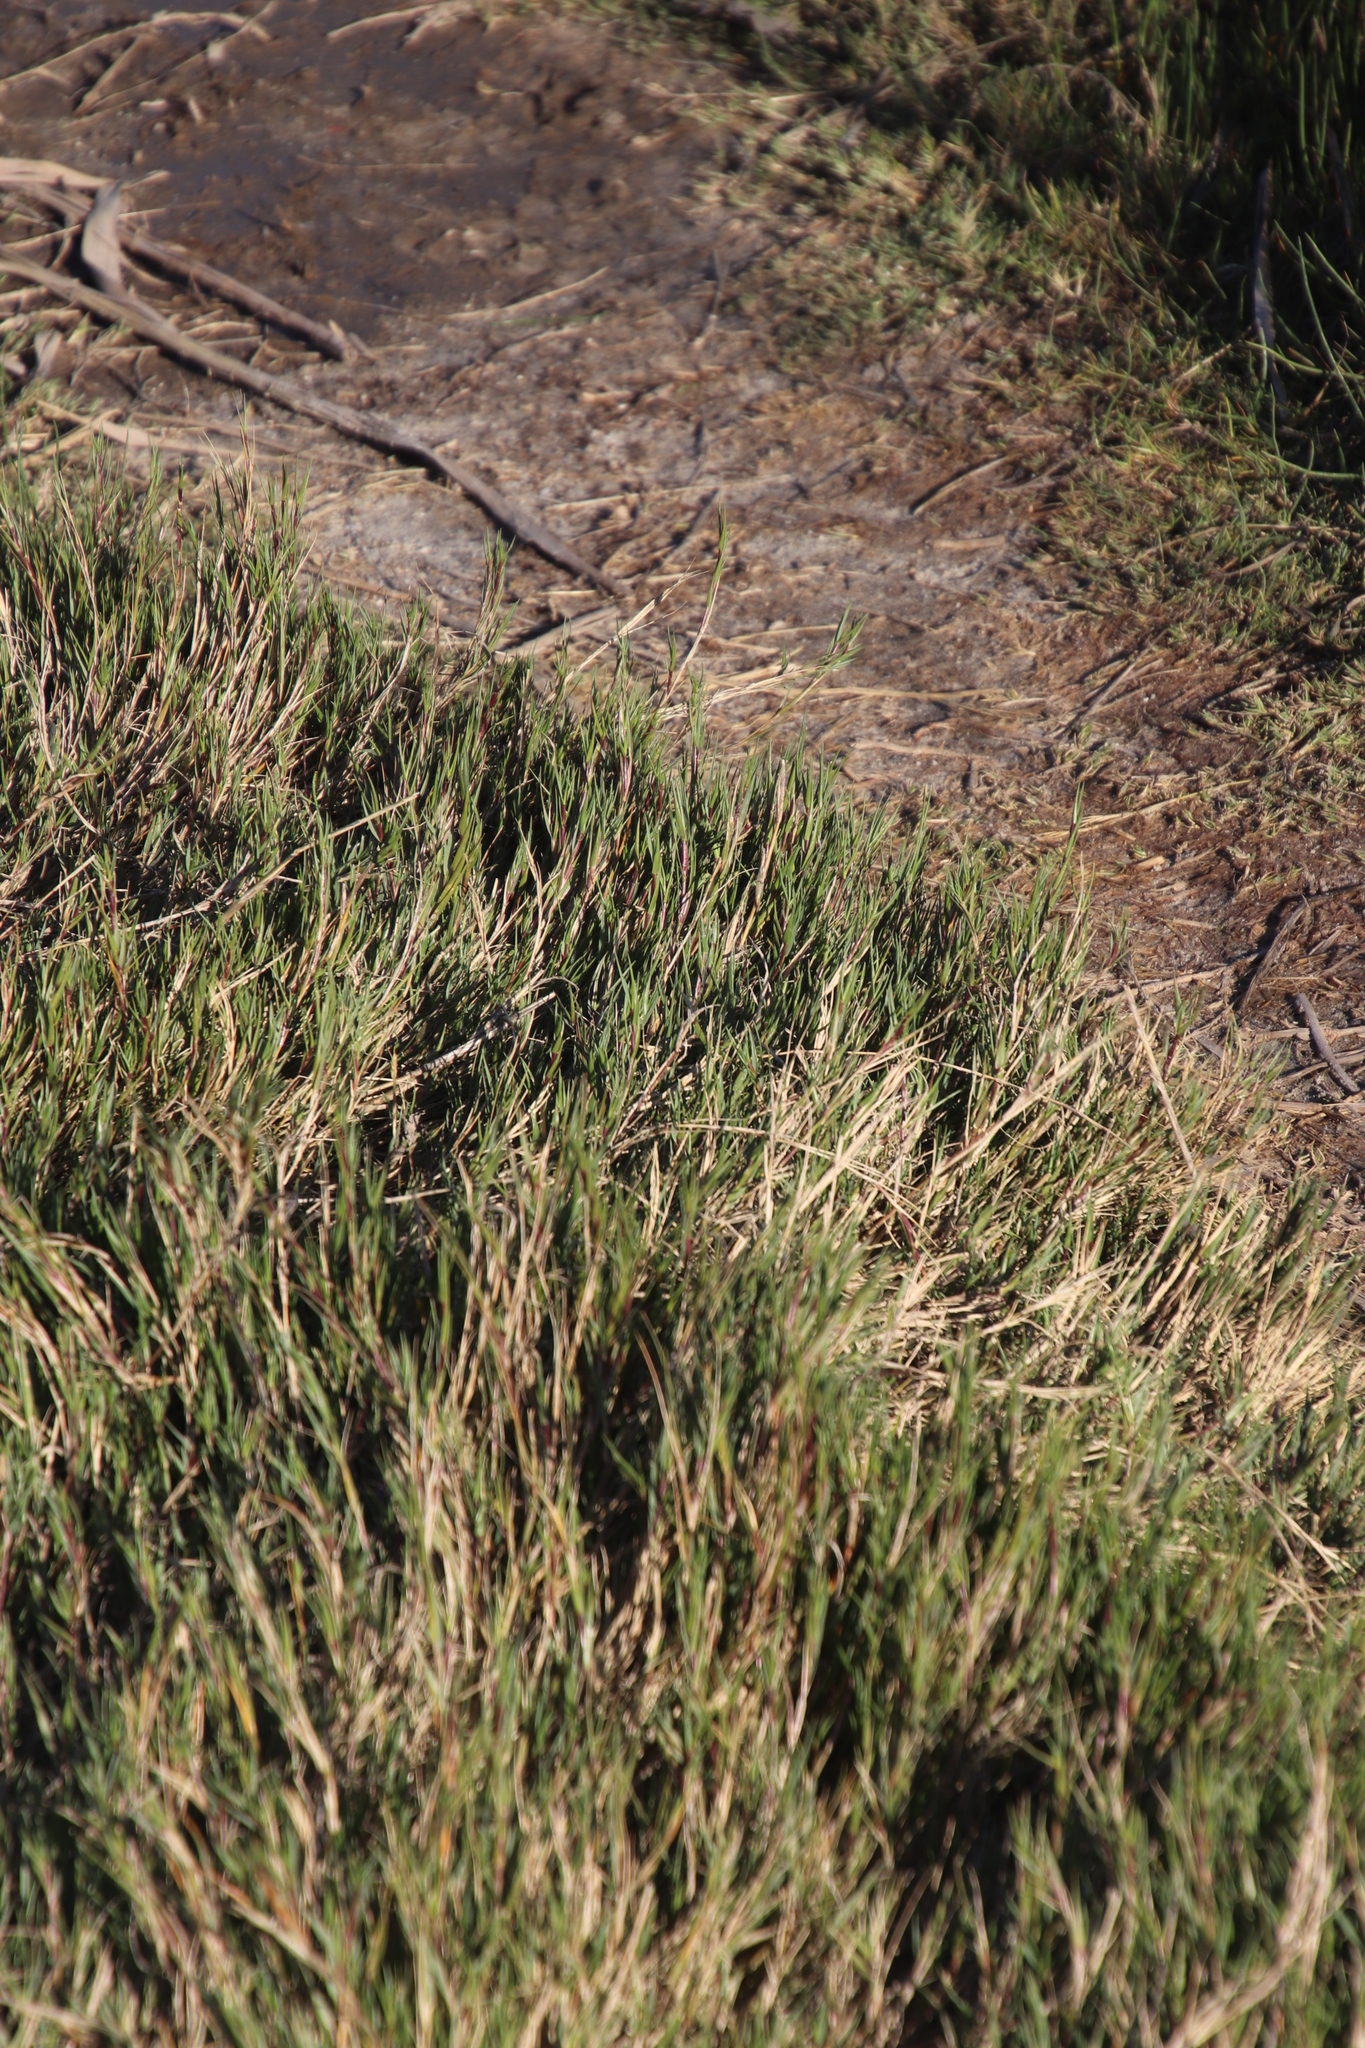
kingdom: Plantae
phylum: Tracheophyta
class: Liliopsida
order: Poales
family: Poaceae
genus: Cynodon
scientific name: Cynodon dactylon
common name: Bermuda grass
